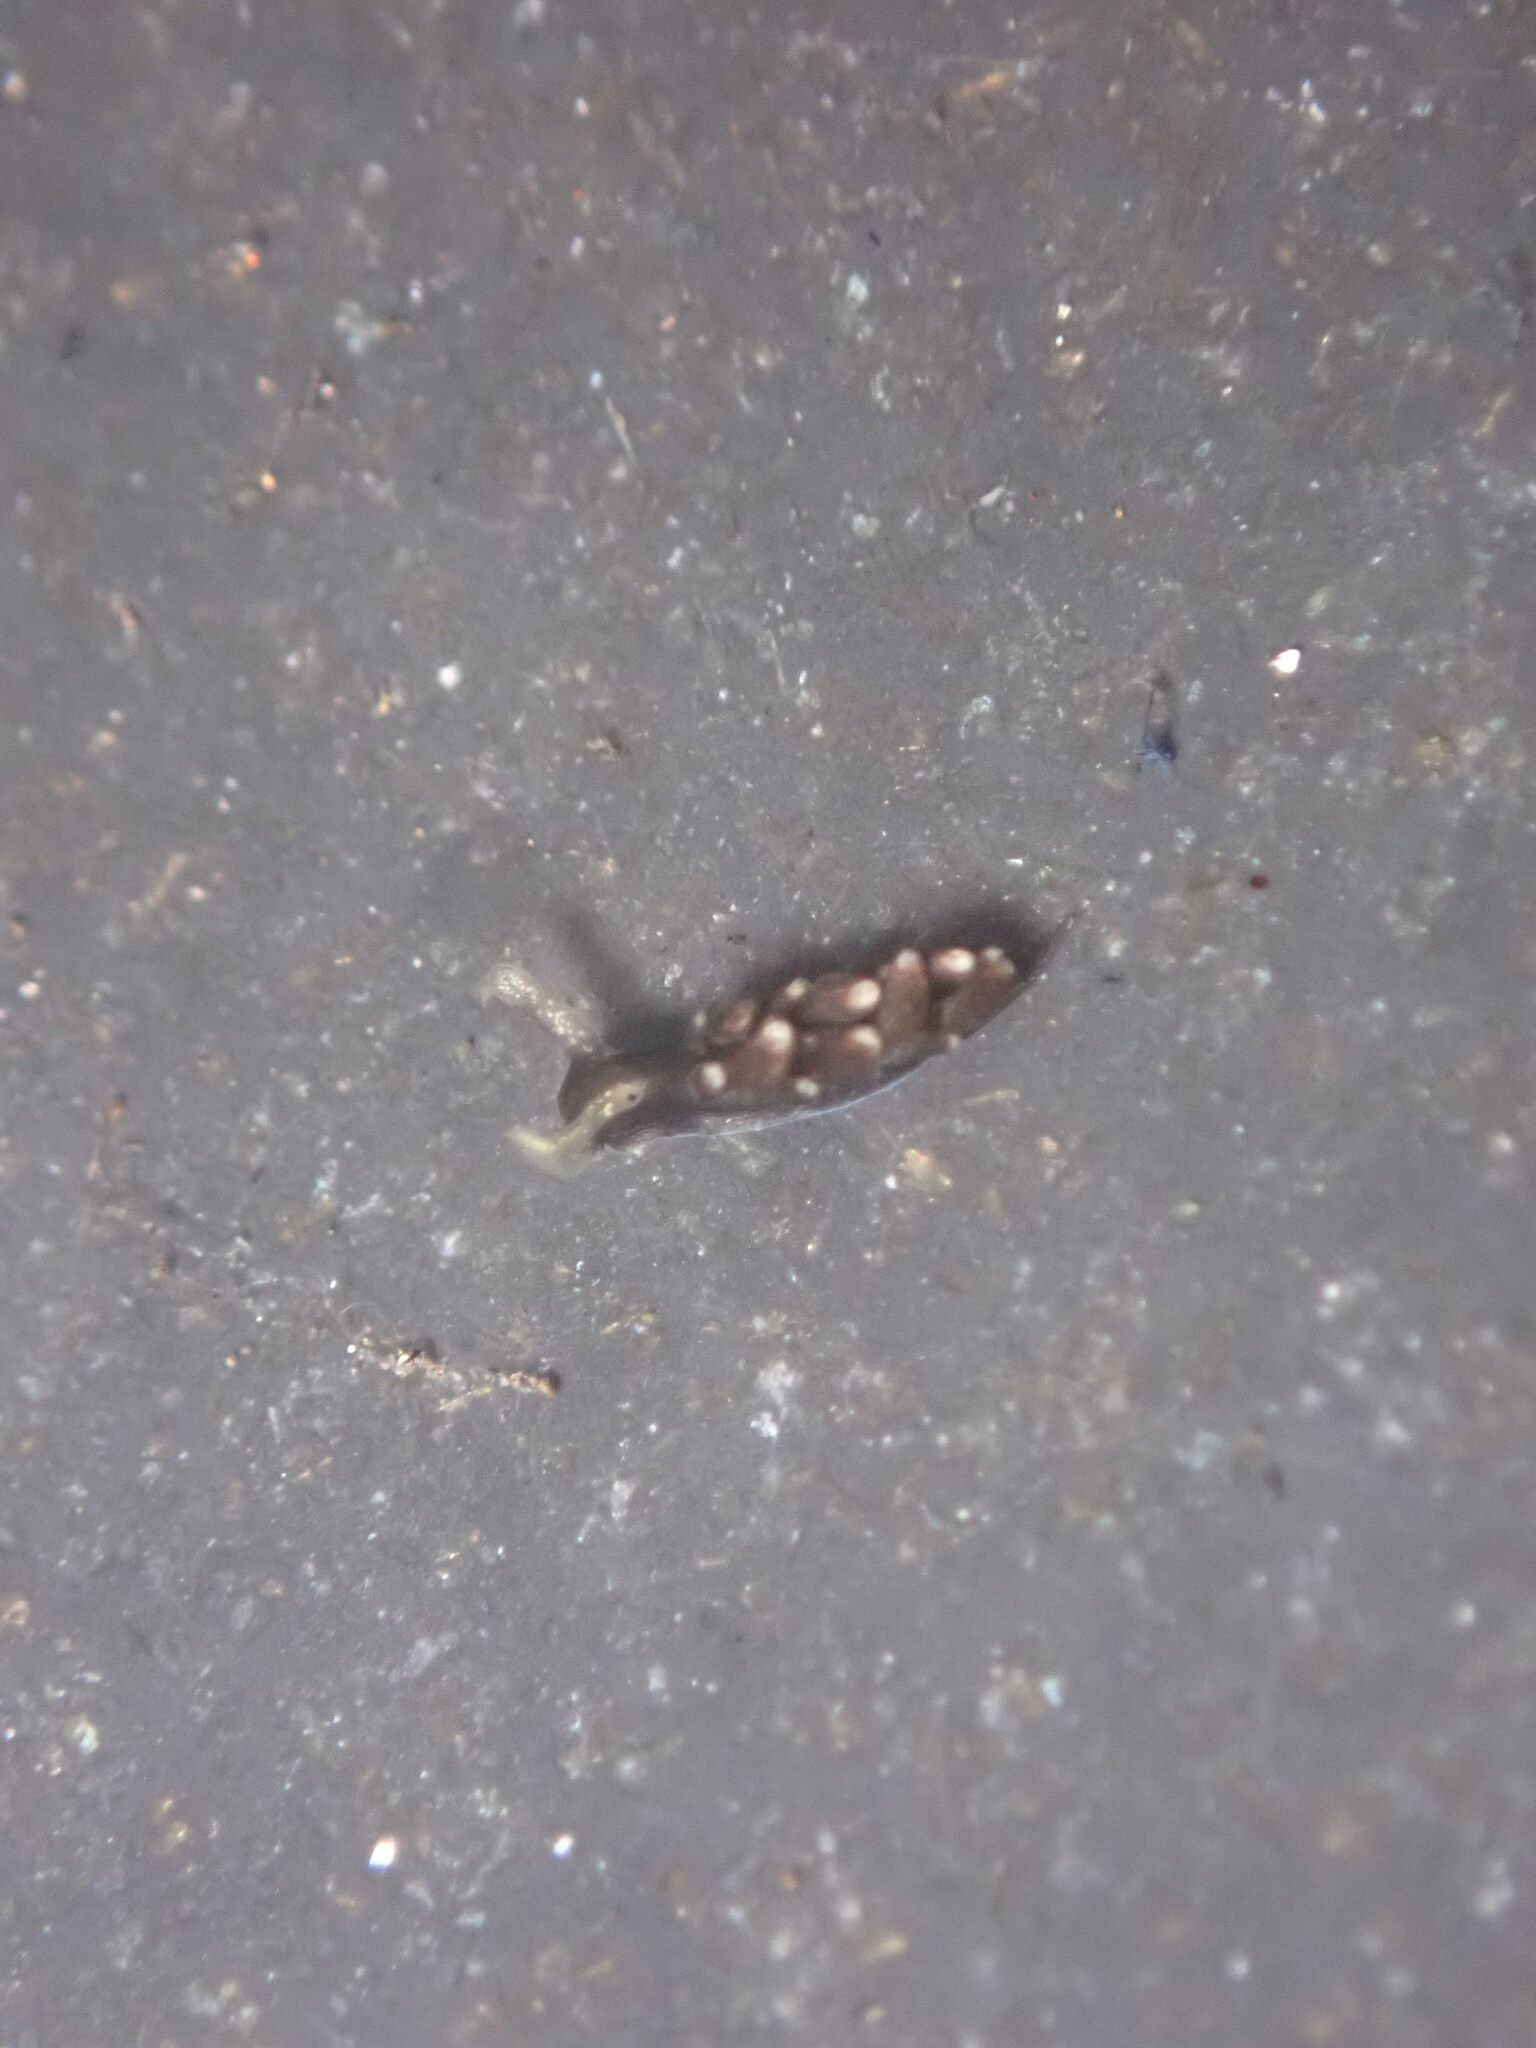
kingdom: Animalia
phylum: Mollusca
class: Gastropoda
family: Hermaeidae
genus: Aplysiopsis
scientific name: Aplysiopsis enteromorphae
